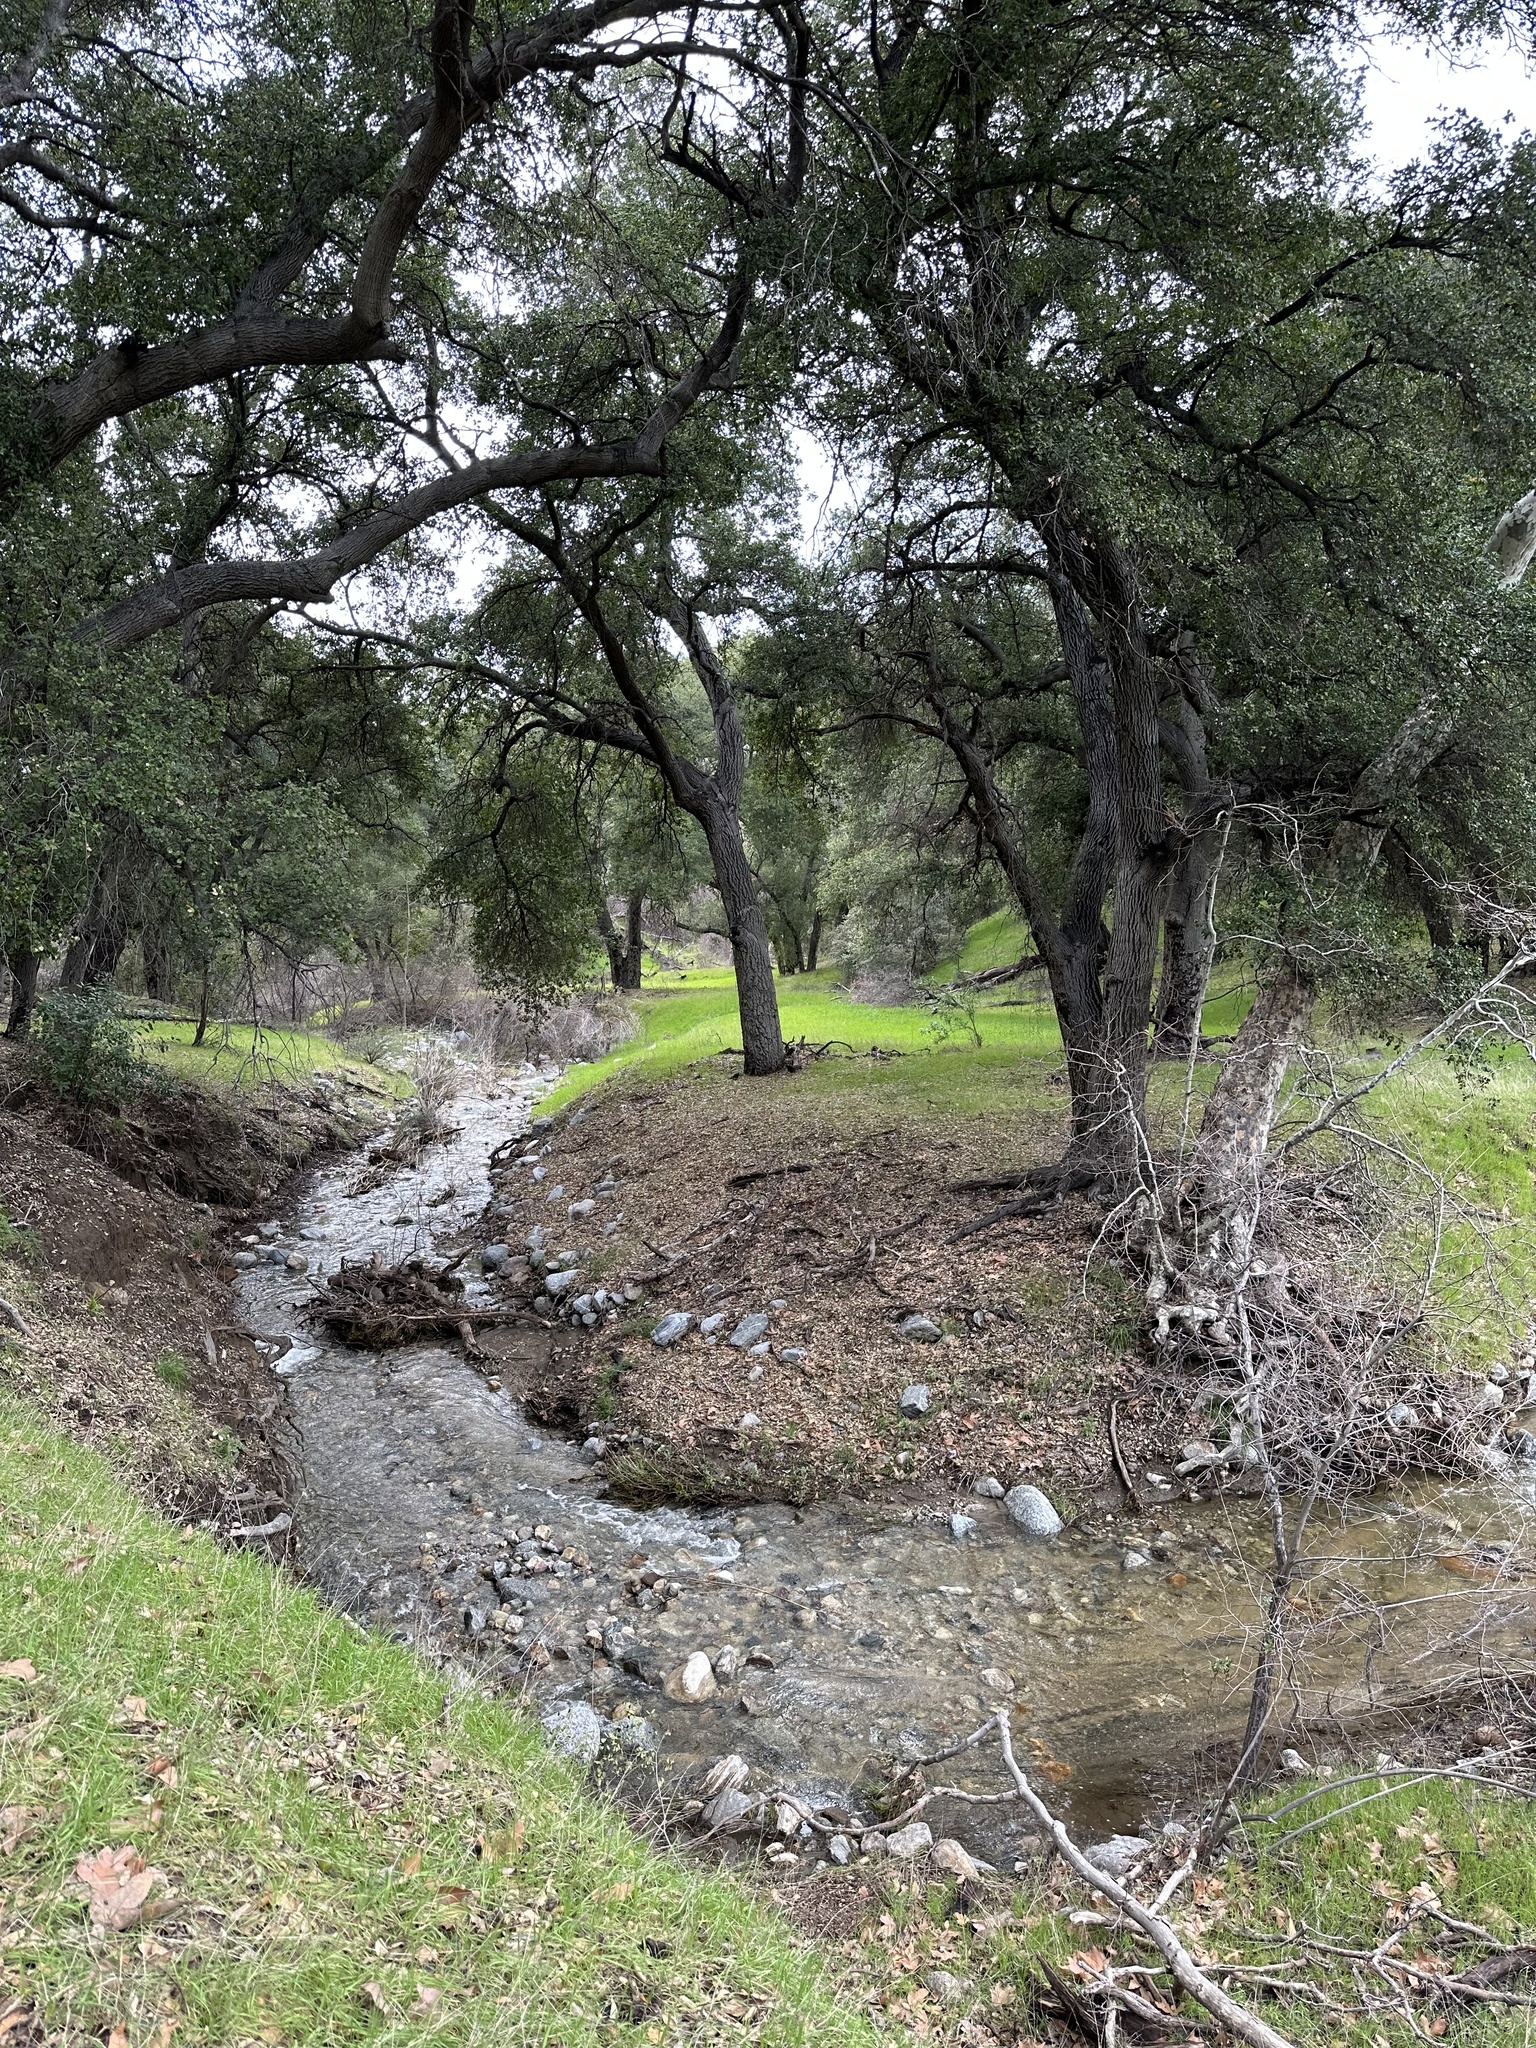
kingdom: Plantae
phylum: Tracheophyta
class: Magnoliopsida
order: Fagales
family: Fagaceae
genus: Quercus
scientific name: Quercus agrifolia
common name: California live oak
